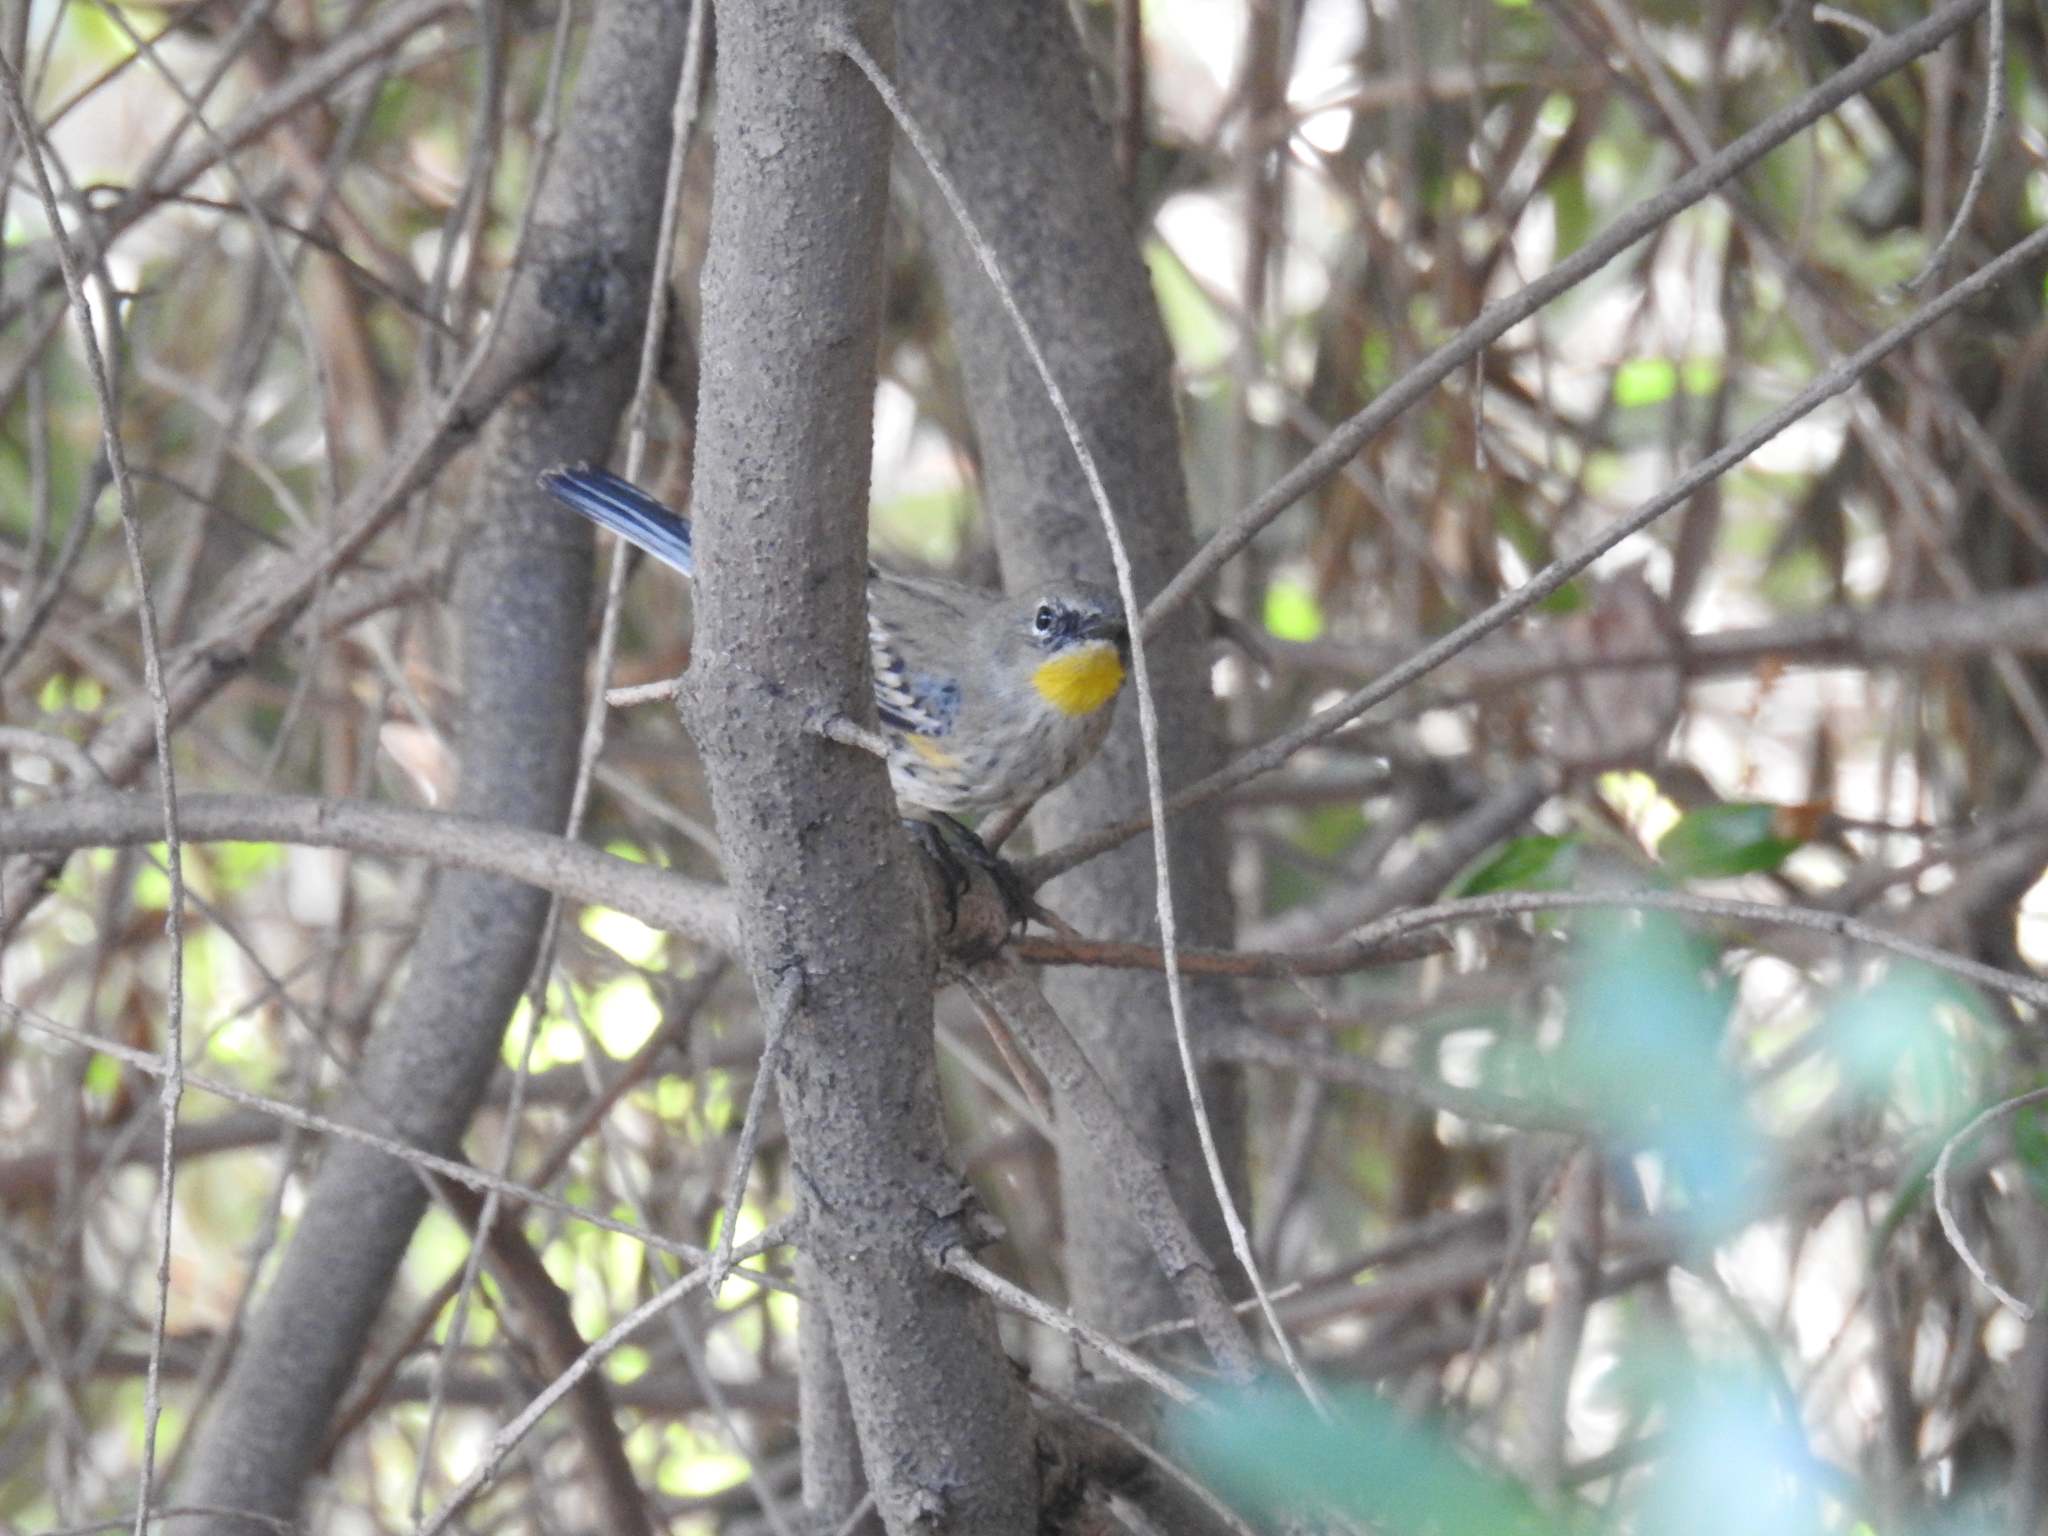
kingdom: Animalia
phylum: Chordata
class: Aves
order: Passeriformes
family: Parulidae
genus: Setophaga
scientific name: Setophaga coronata
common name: Myrtle warbler
